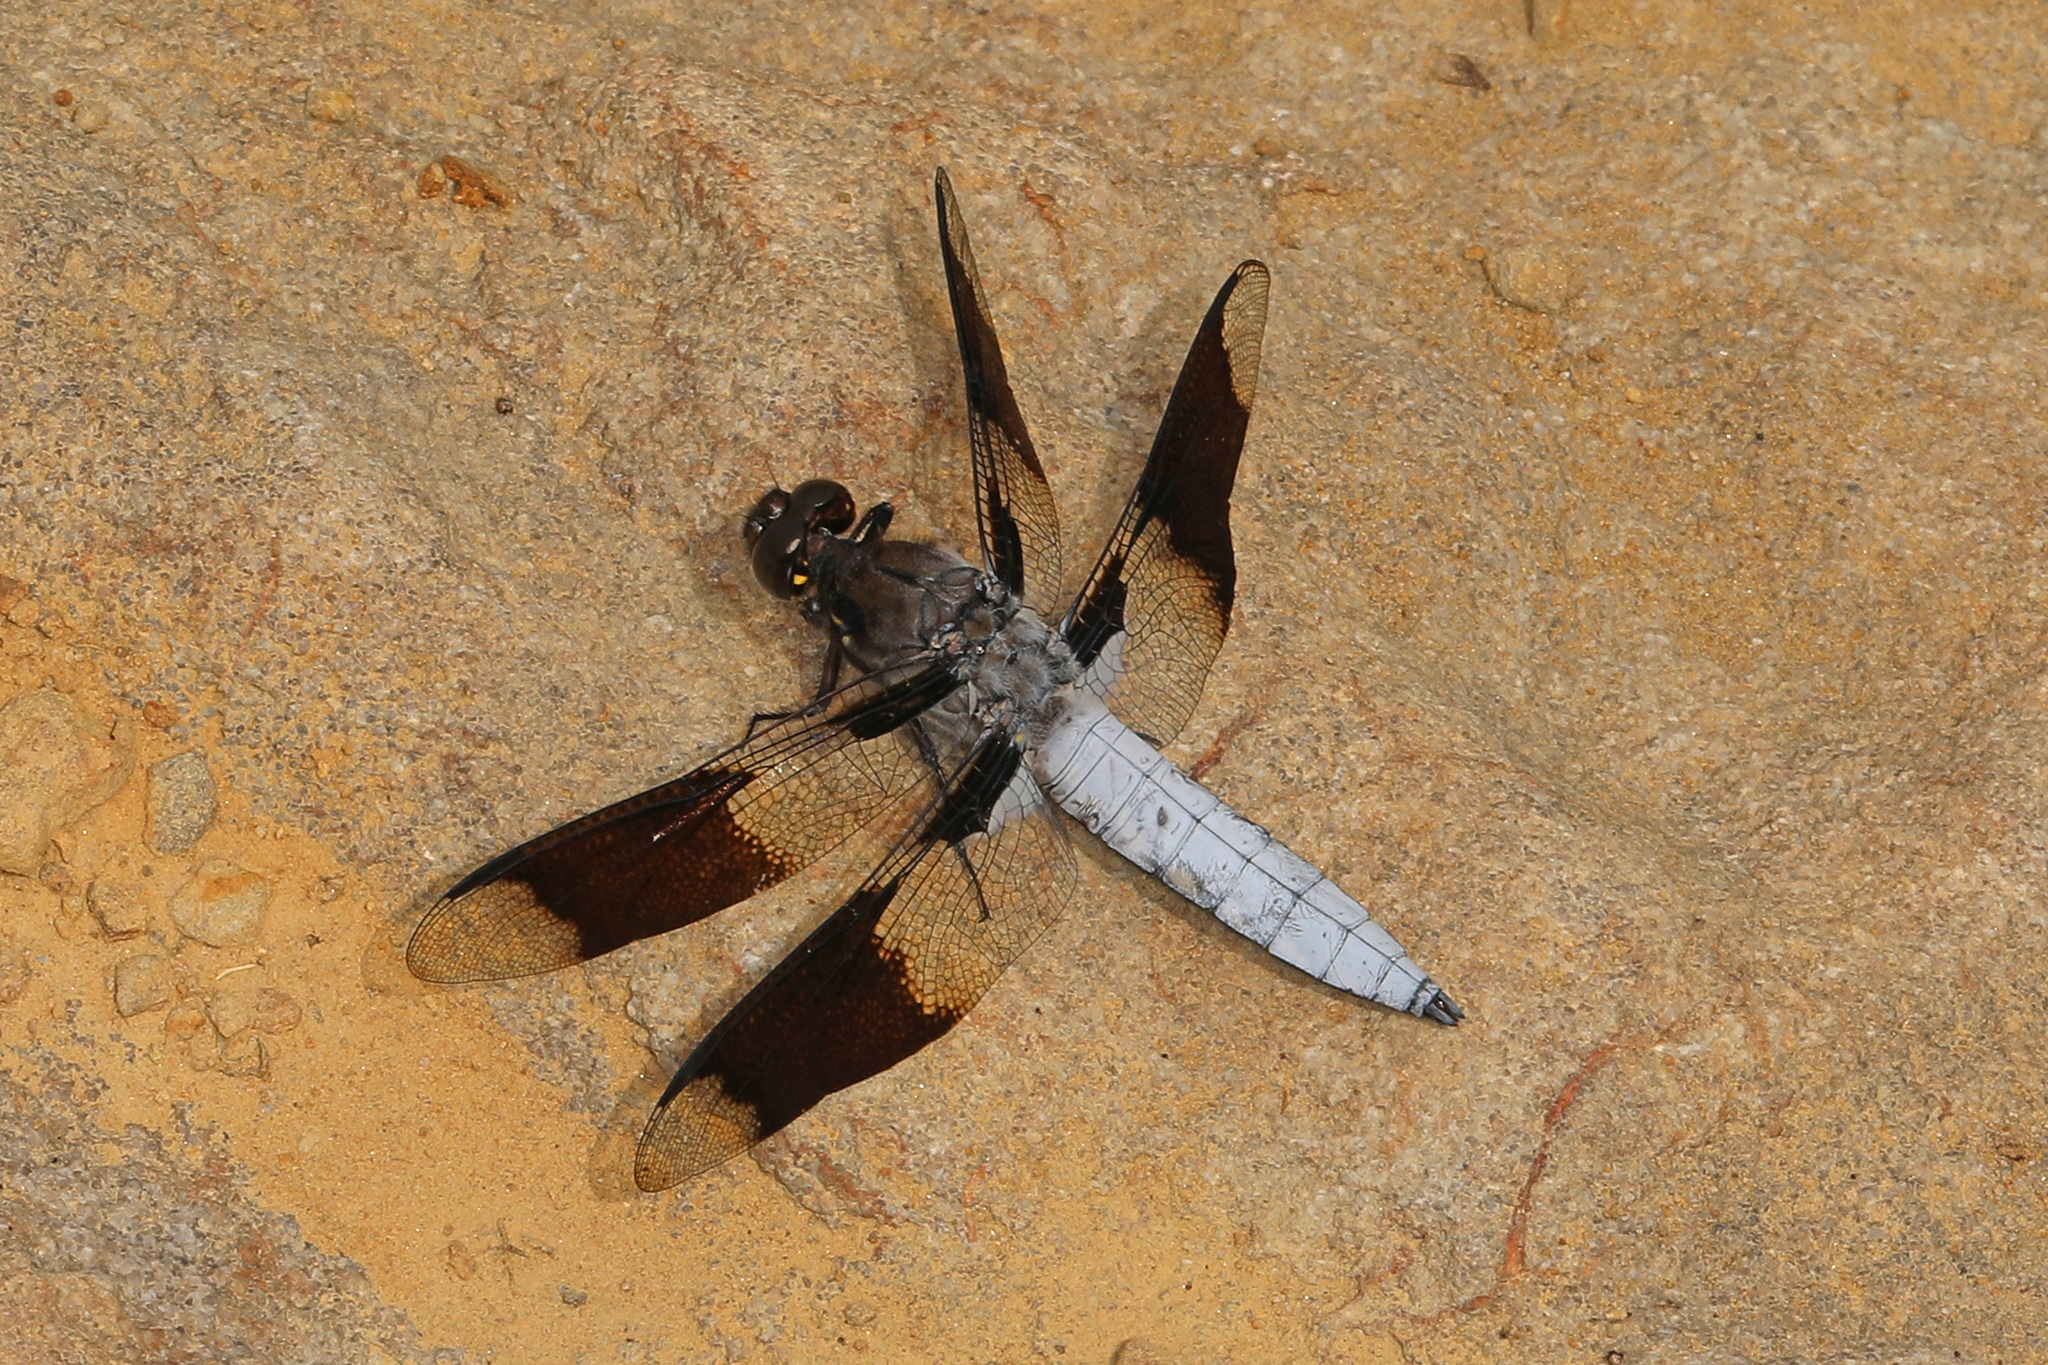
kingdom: Animalia
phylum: Arthropoda
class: Insecta
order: Odonata
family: Libellulidae
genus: Plathemis
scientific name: Plathemis lydia
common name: Common whitetail
